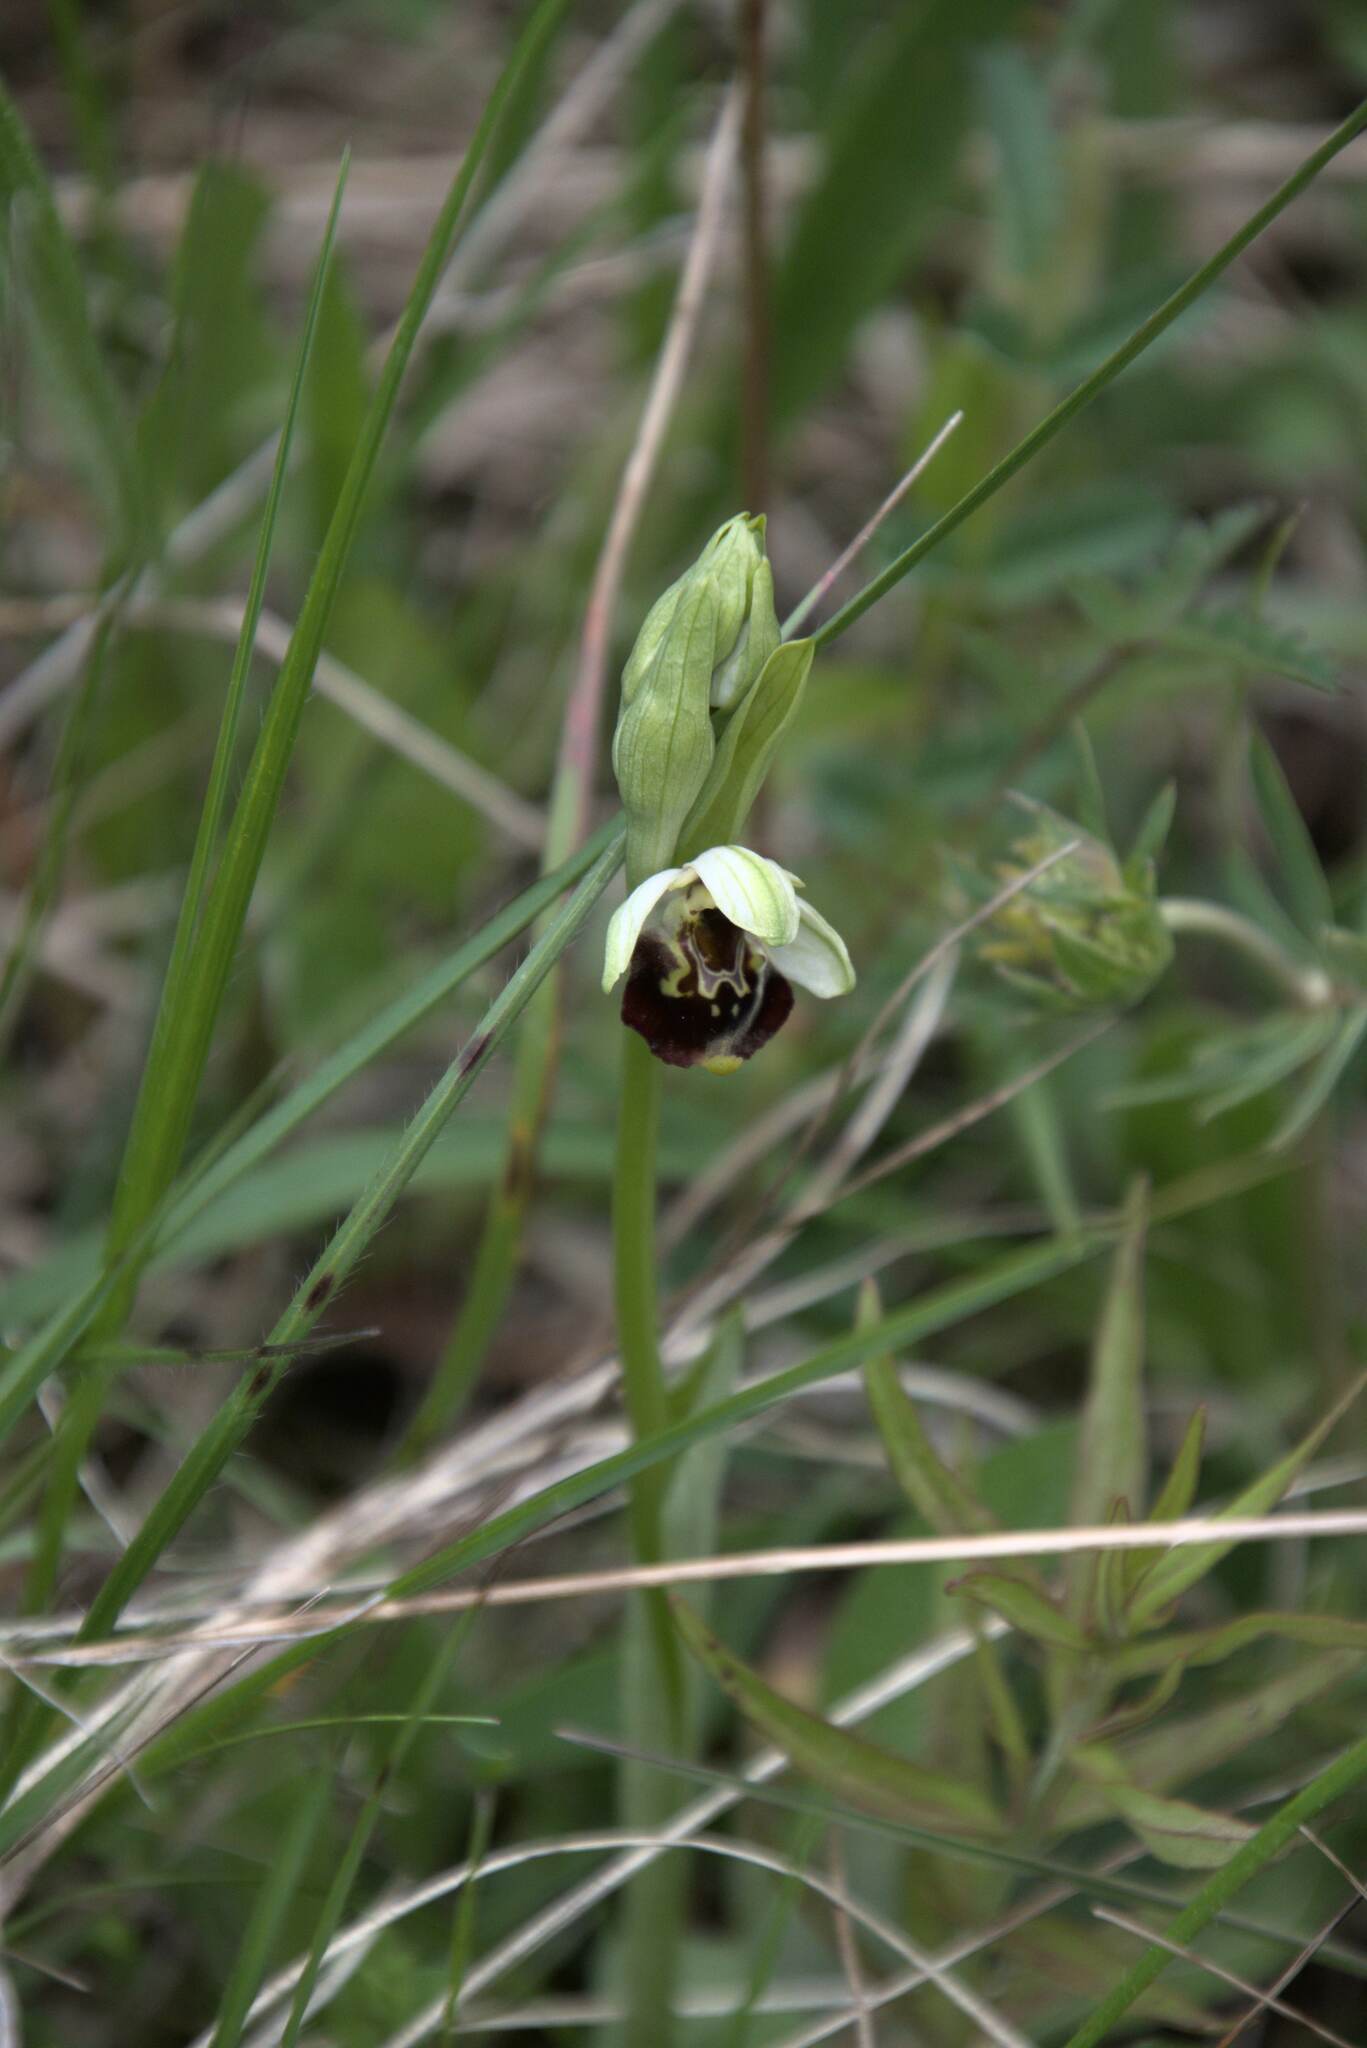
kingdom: Plantae
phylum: Tracheophyta
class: Liliopsida
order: Asparagales
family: Orchidaceae
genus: Ophrys
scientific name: Ophrys holosericea
